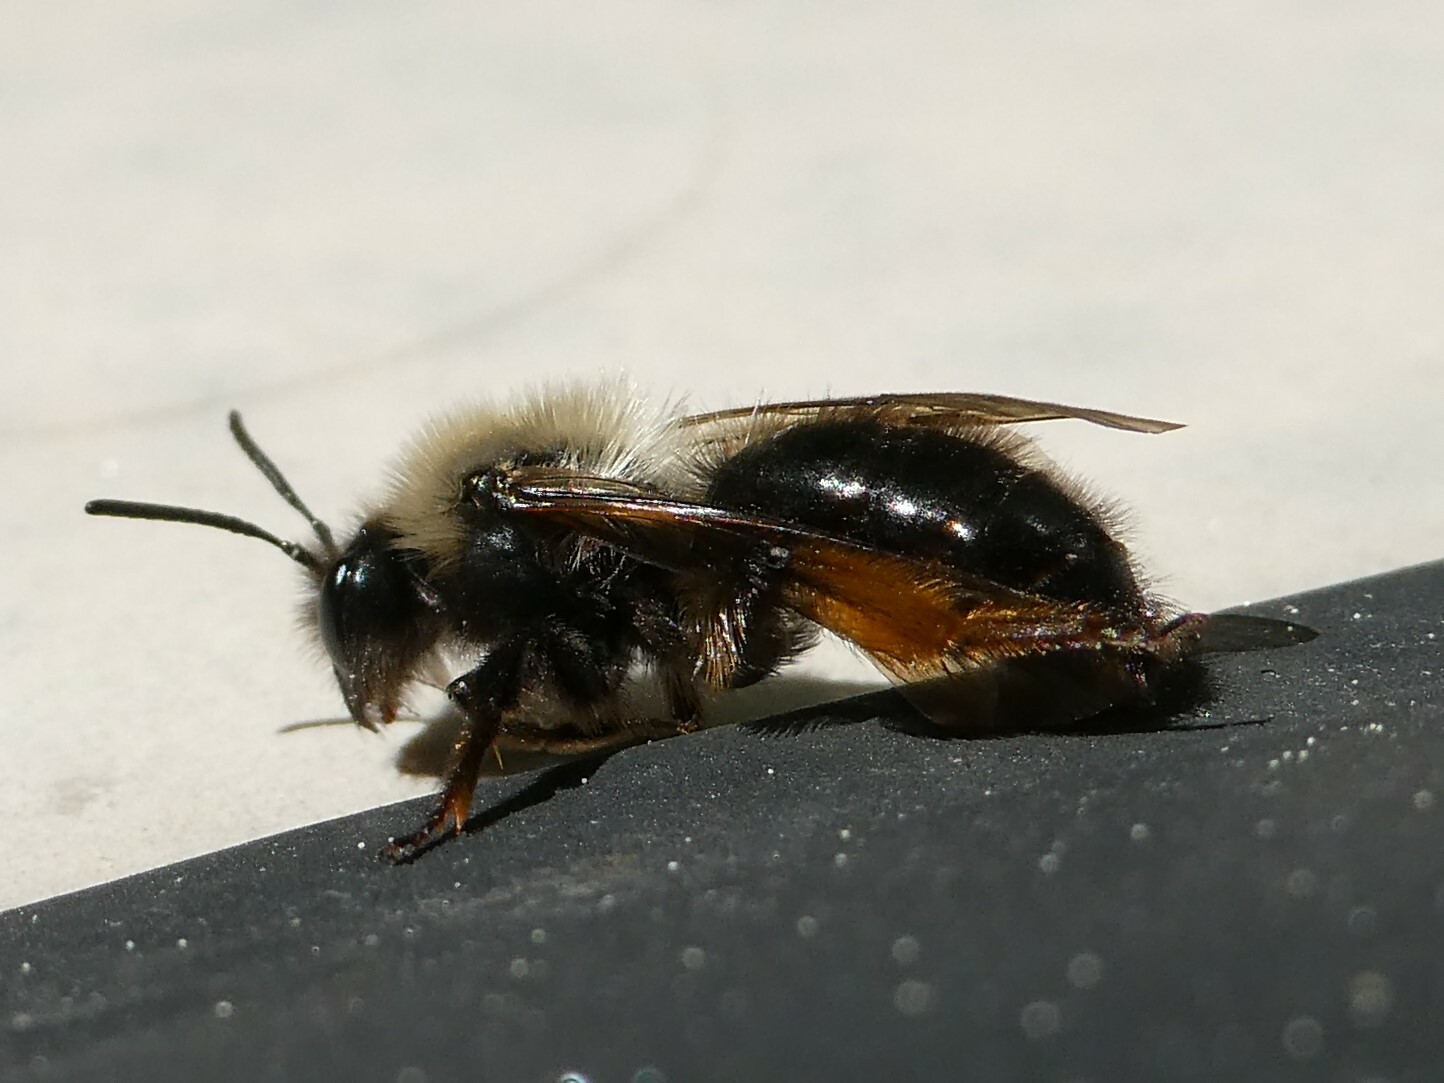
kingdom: Animalia
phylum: Arthropoda
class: Insecta
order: Hymenoptera
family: Andrenidae
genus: Andrena
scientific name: Andrena clarkella
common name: Clarke's mining bee
